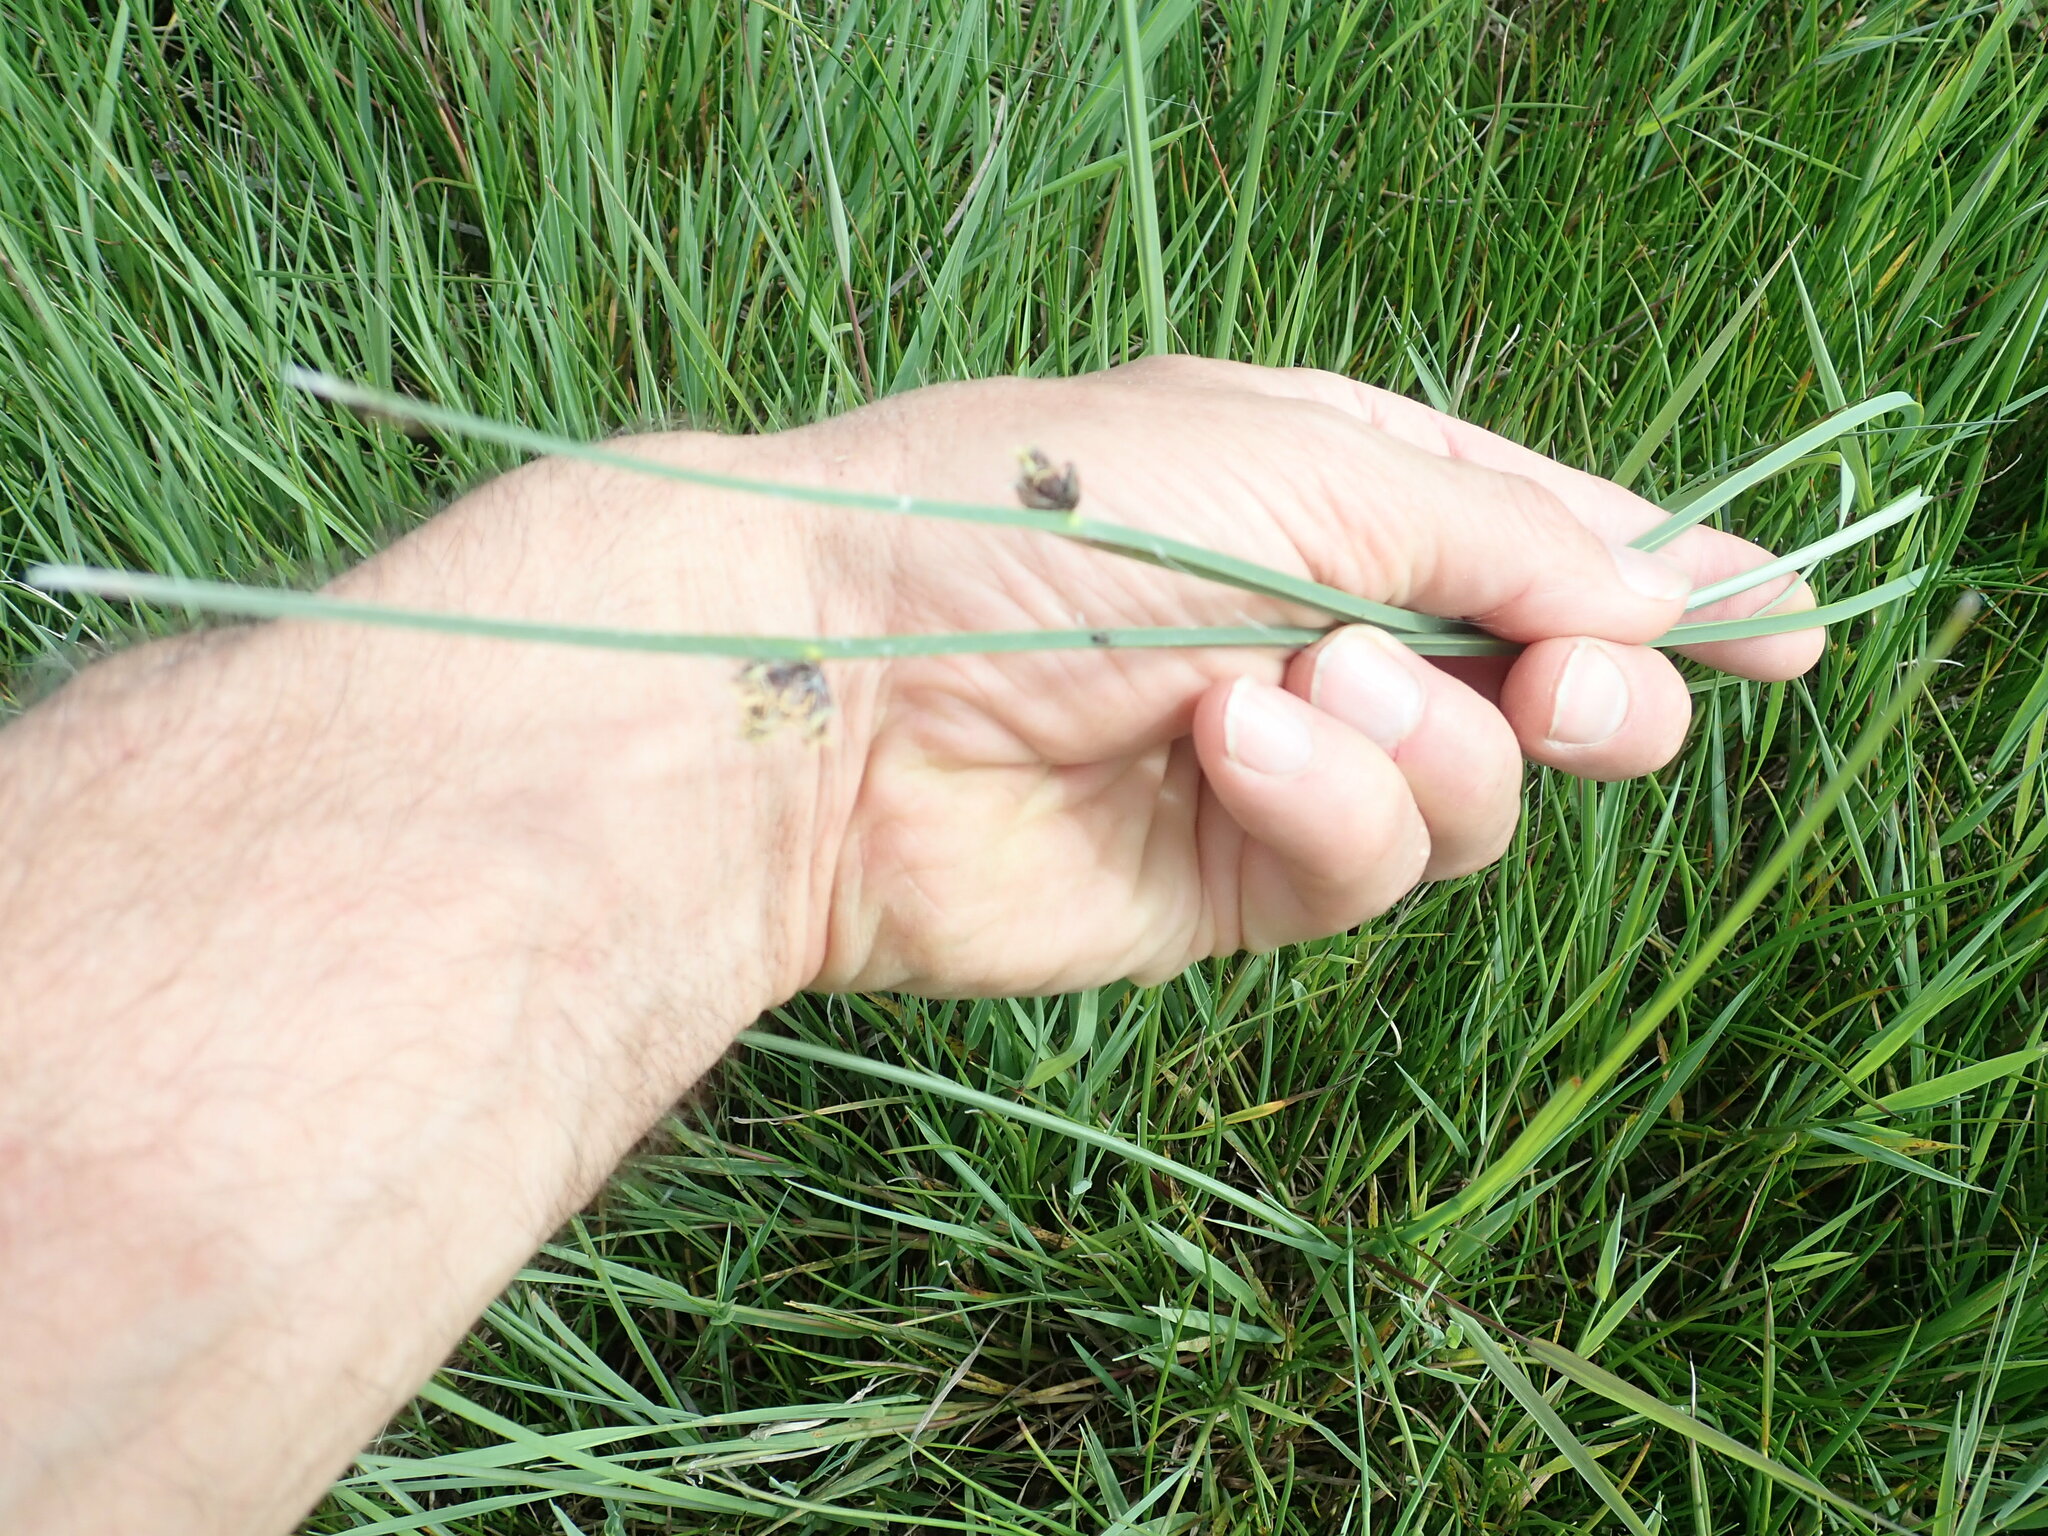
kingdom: Plantae
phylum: Tracheophyta
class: Liliopsida
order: Poales
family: Cyperaceae
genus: Schoenoplectus
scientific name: Schoenoplectus pungens
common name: Sharp club-rush
